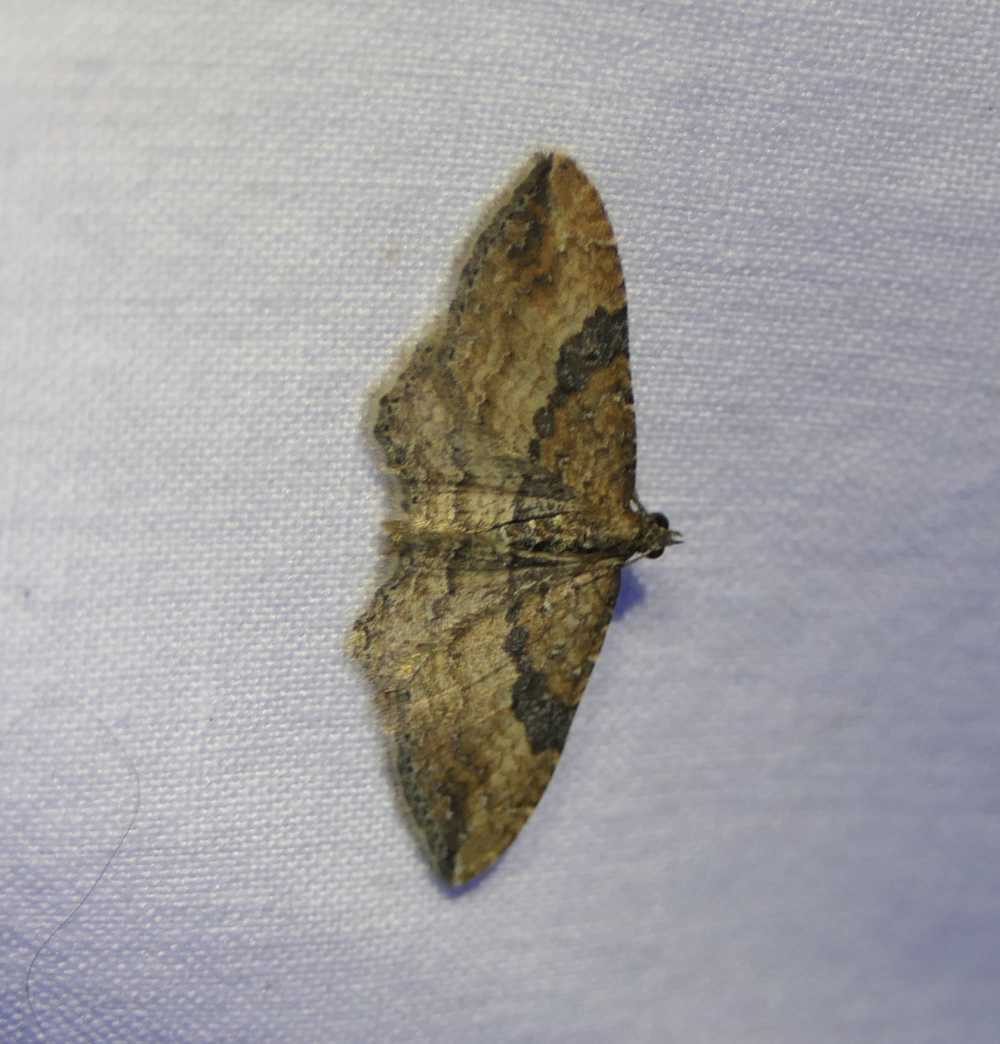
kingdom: Animalia
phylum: Arthropoda
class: Insecta
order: Lepidoptera
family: Geometridae
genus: Orthonama
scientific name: Orthonama obstipata
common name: The gem
